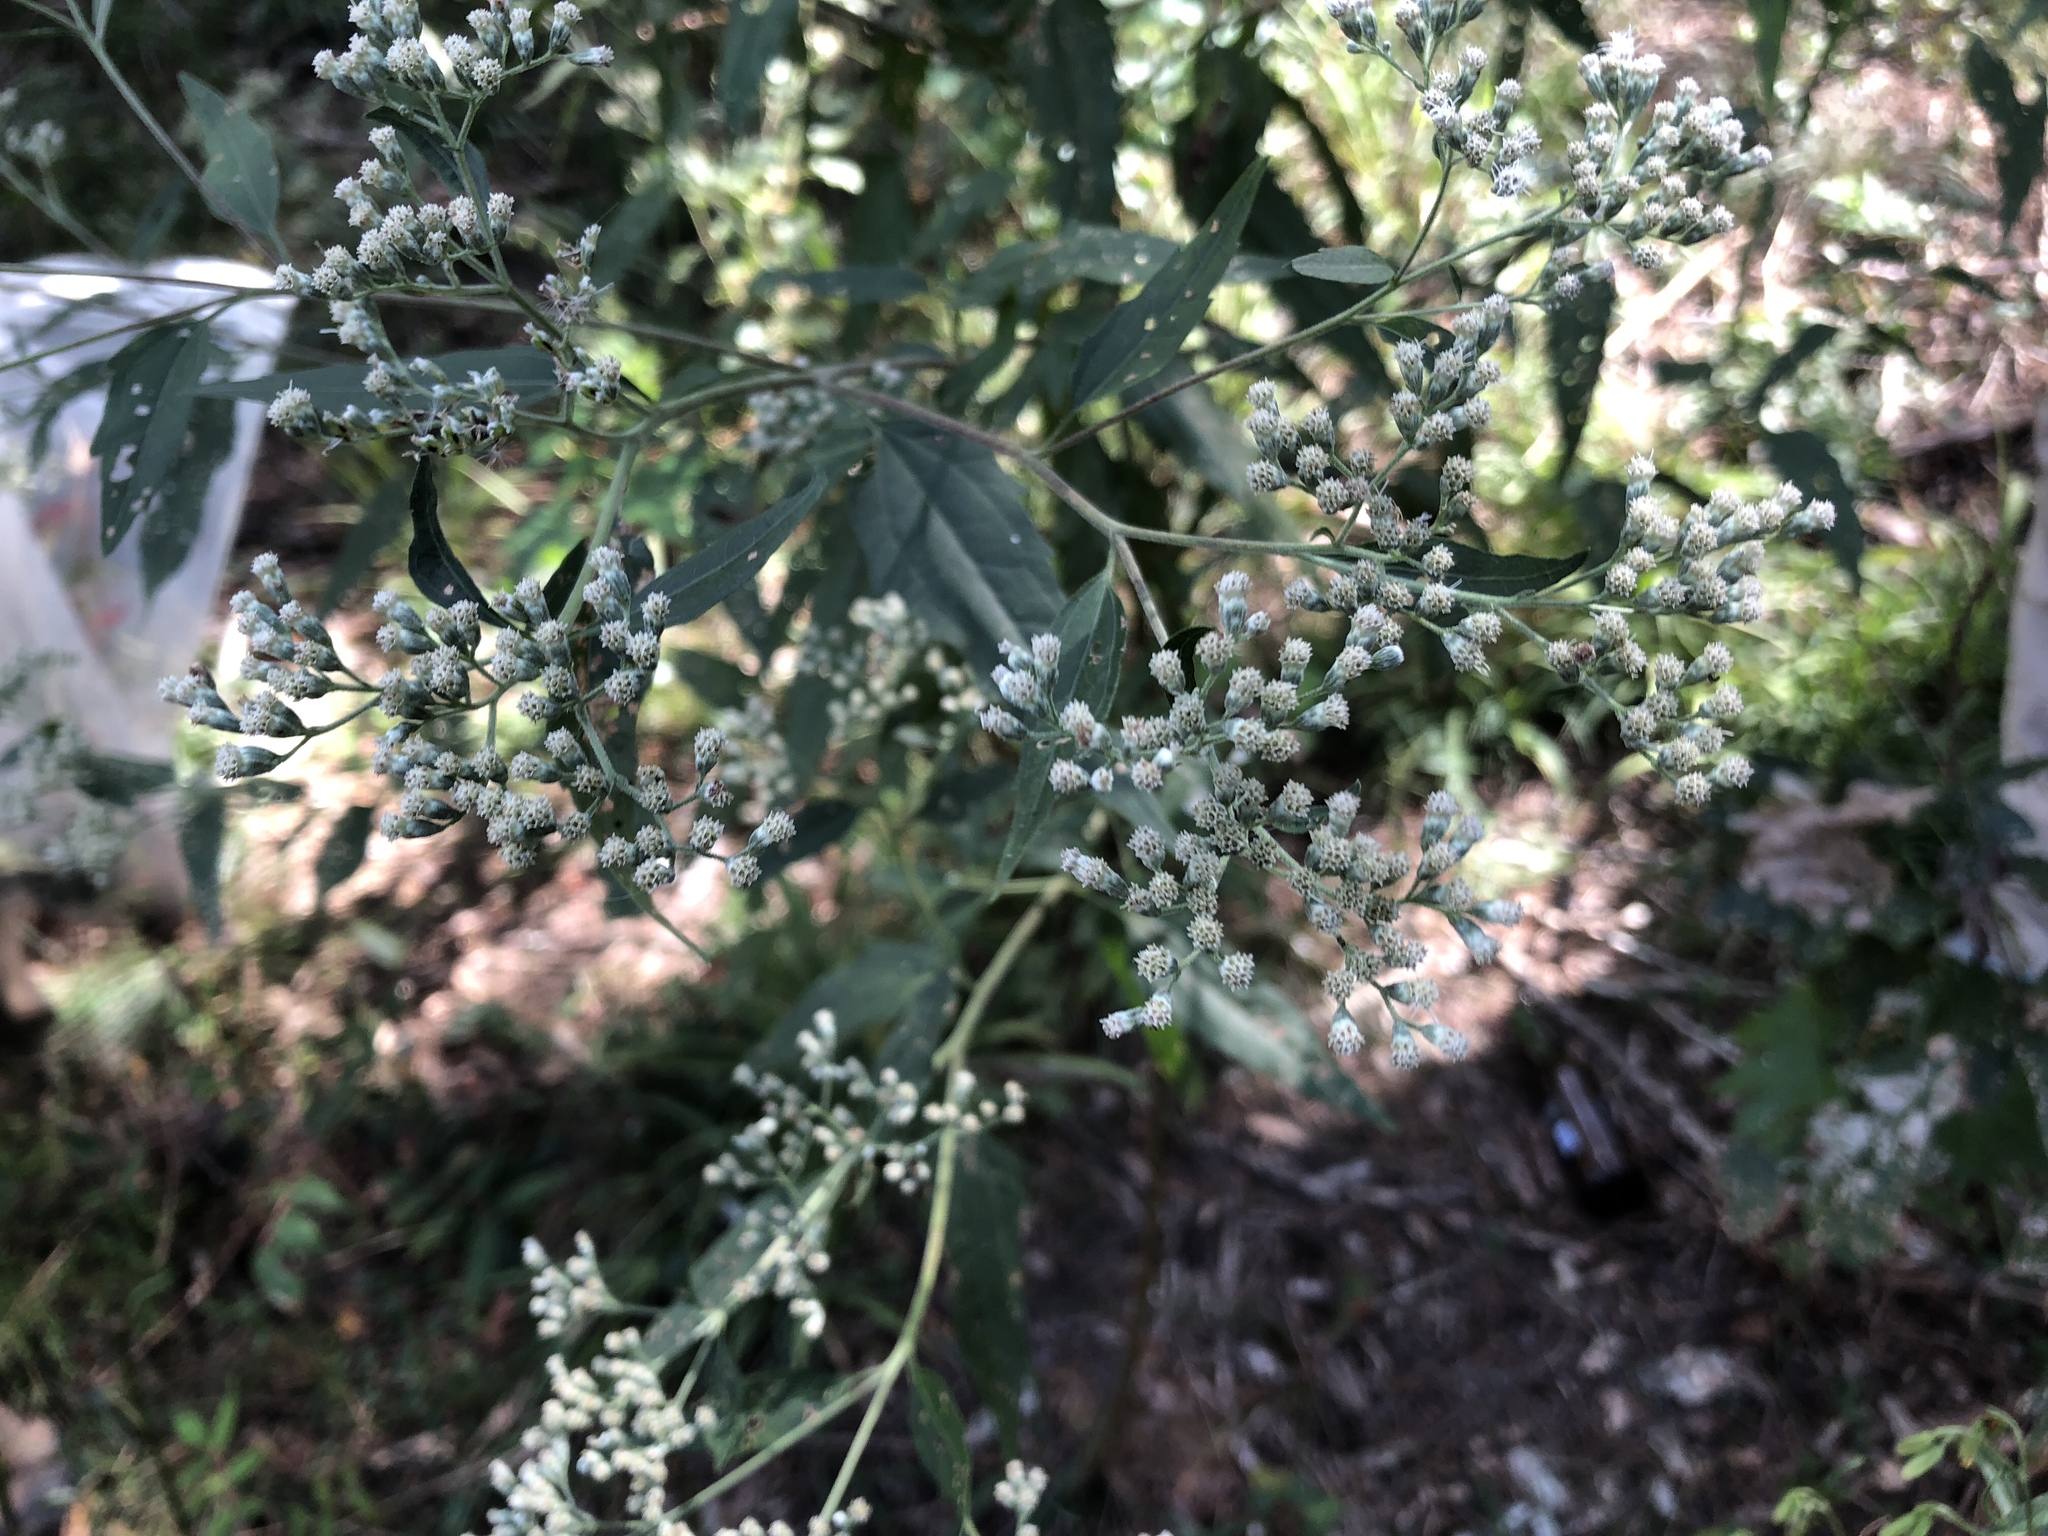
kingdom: Plantae
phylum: Tracheophyta
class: Magnoliopsida
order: Asterales
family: Asteraceae
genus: Eupatorium
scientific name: Eupatorium serotinum
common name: Late boneset
